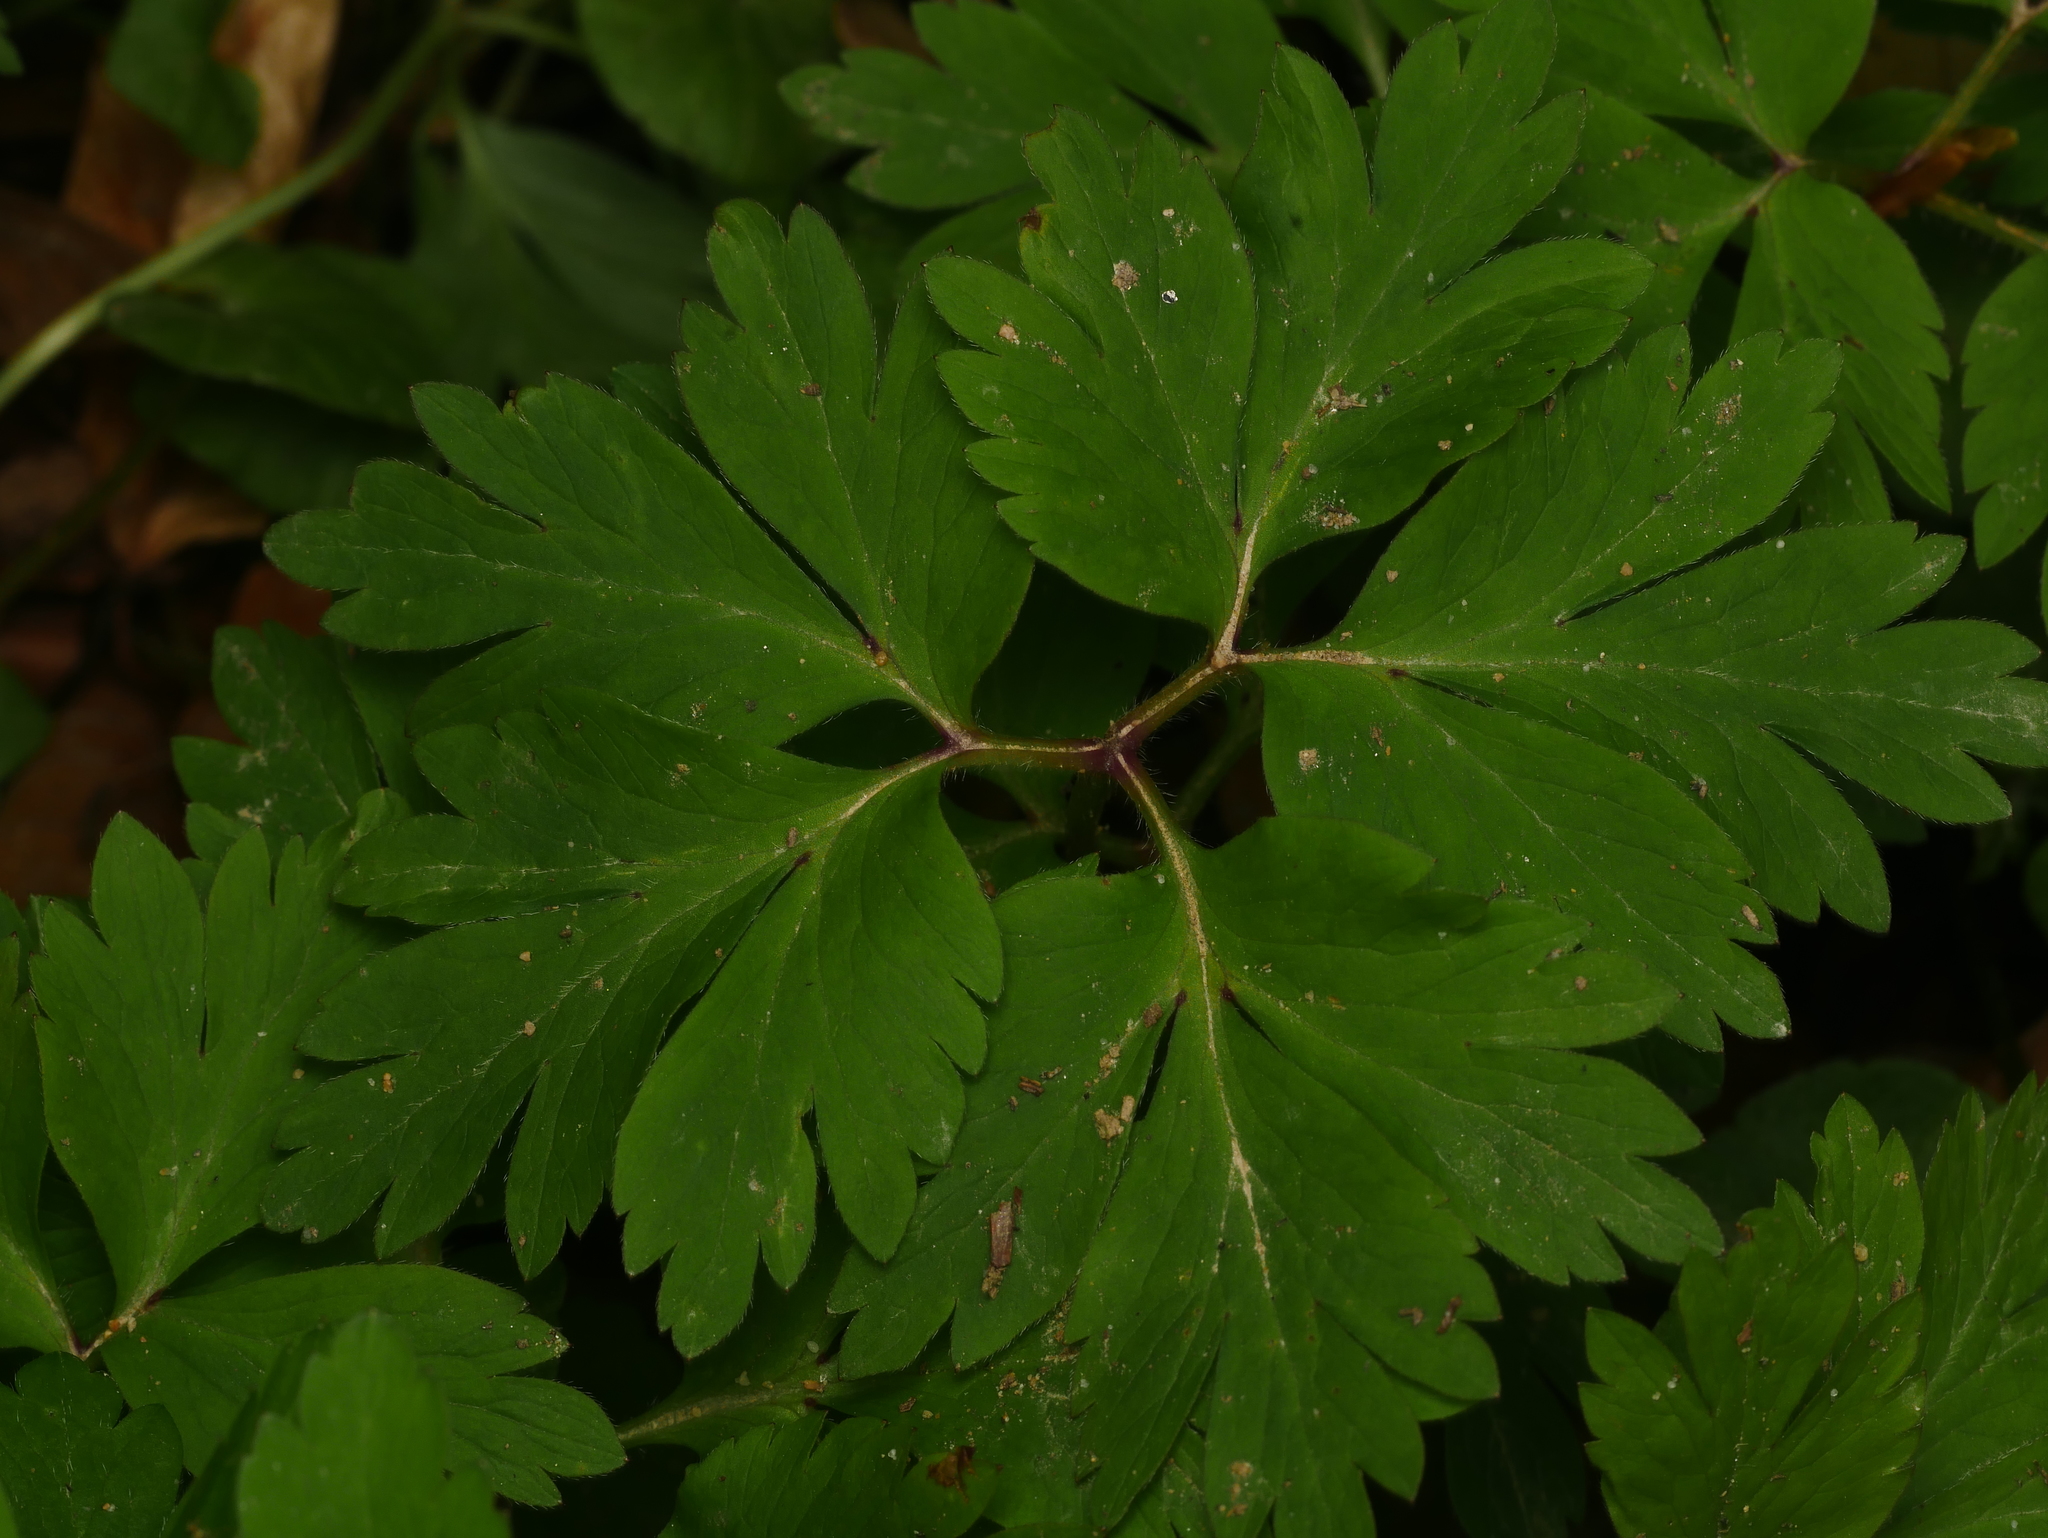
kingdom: Plantae
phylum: Tracheophyta
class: Magnoliopsida
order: Ranunculales
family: Ranunculaceae
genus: Anemone
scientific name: Anemone nemorosa
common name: Wood anemone
